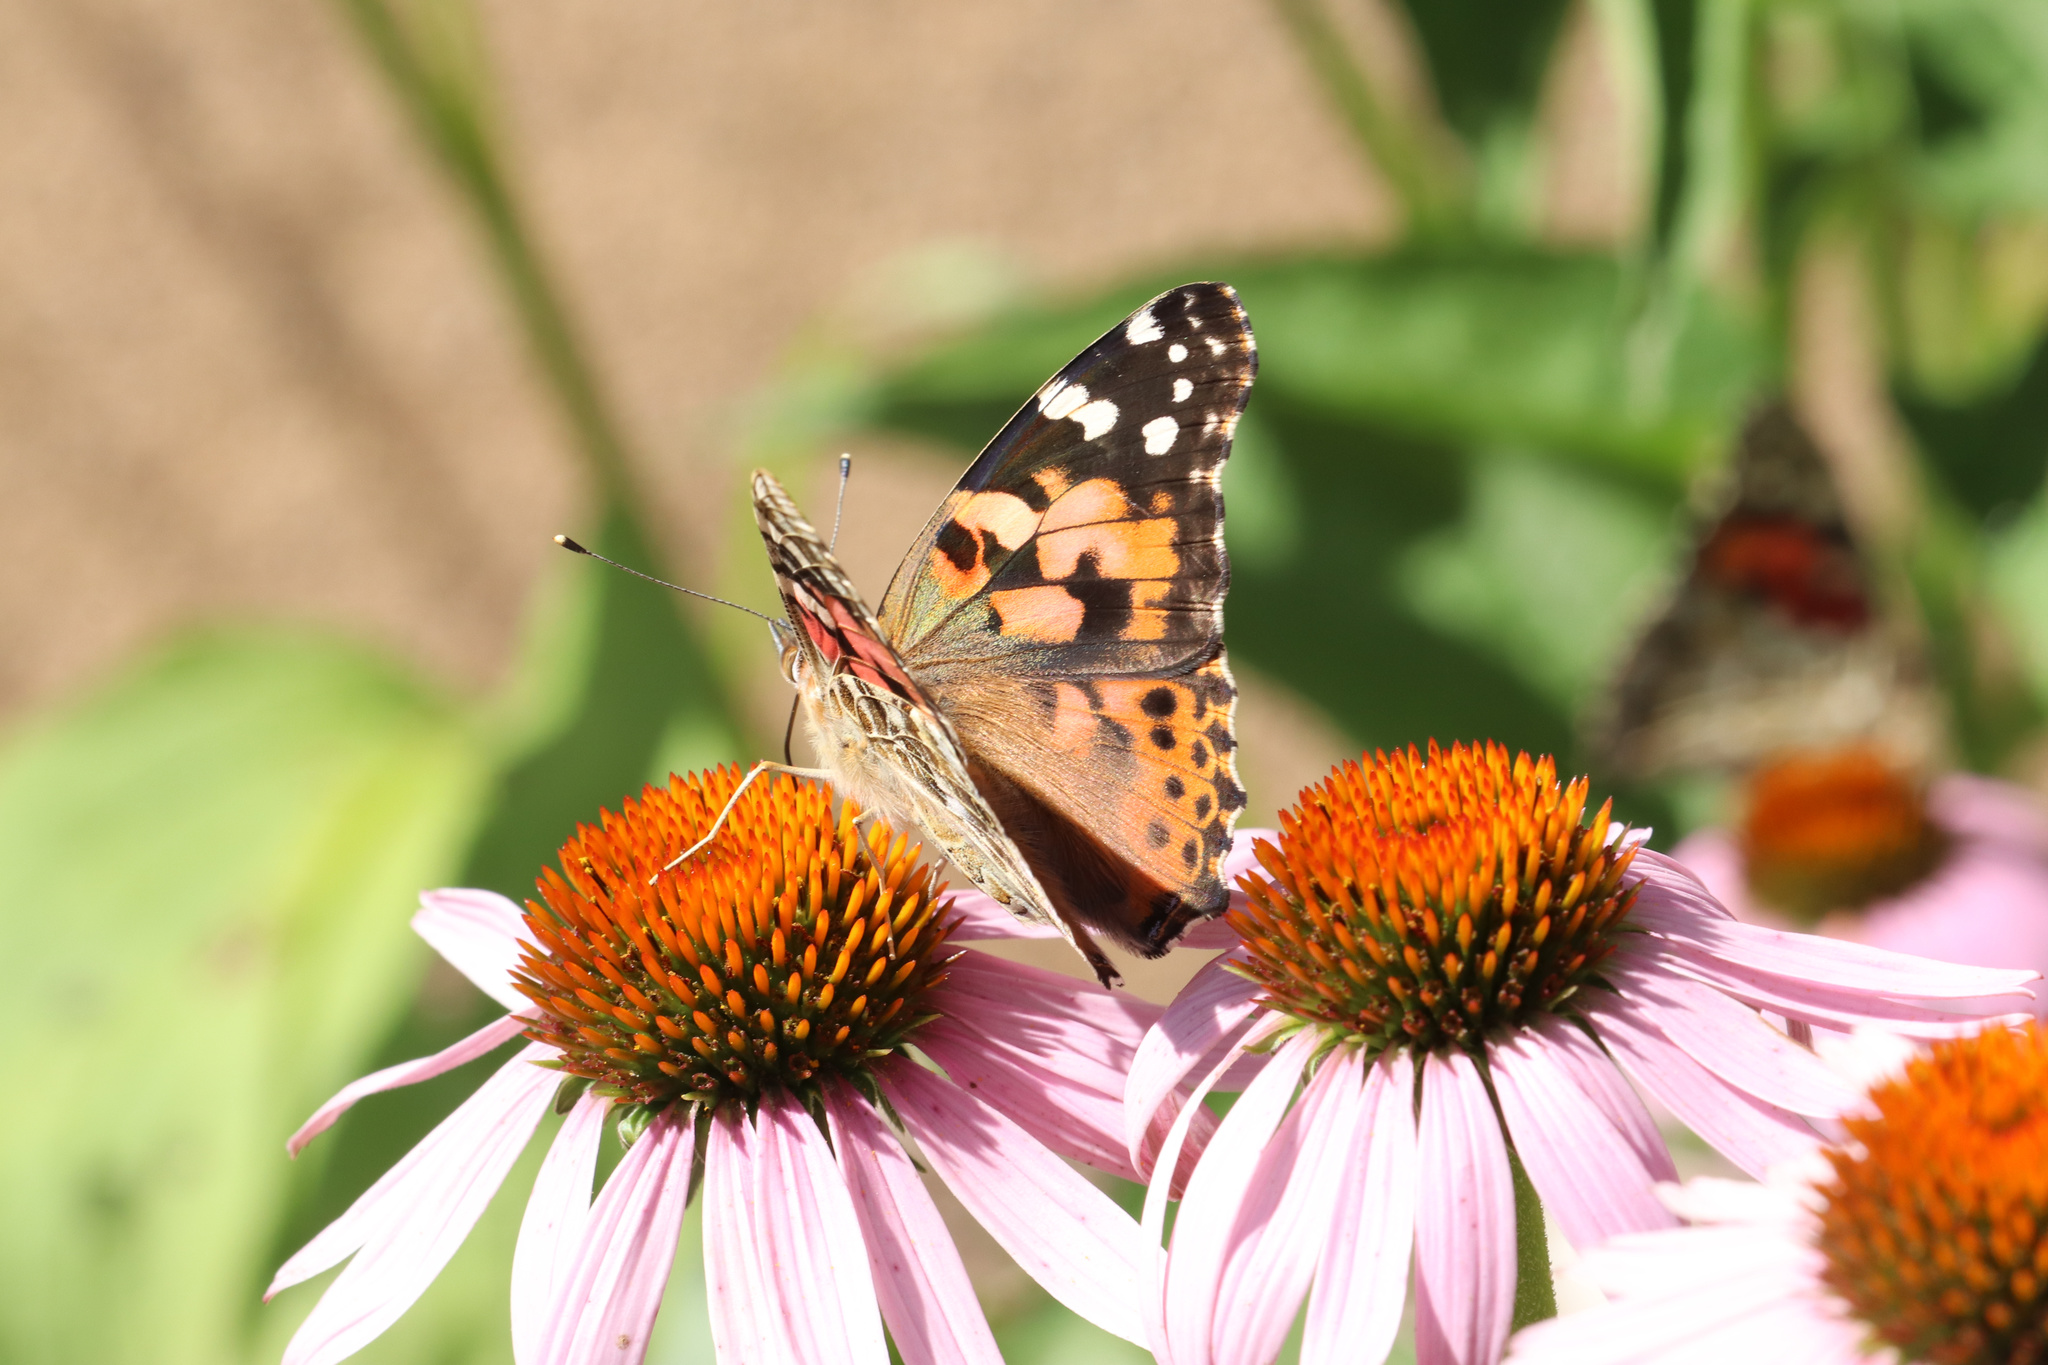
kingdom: Animalia
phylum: Arthropoda
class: Insecta
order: Lepidoptera
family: Nymphalidae
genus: Vanessa
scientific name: Vanessa cardui
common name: Painted lady
